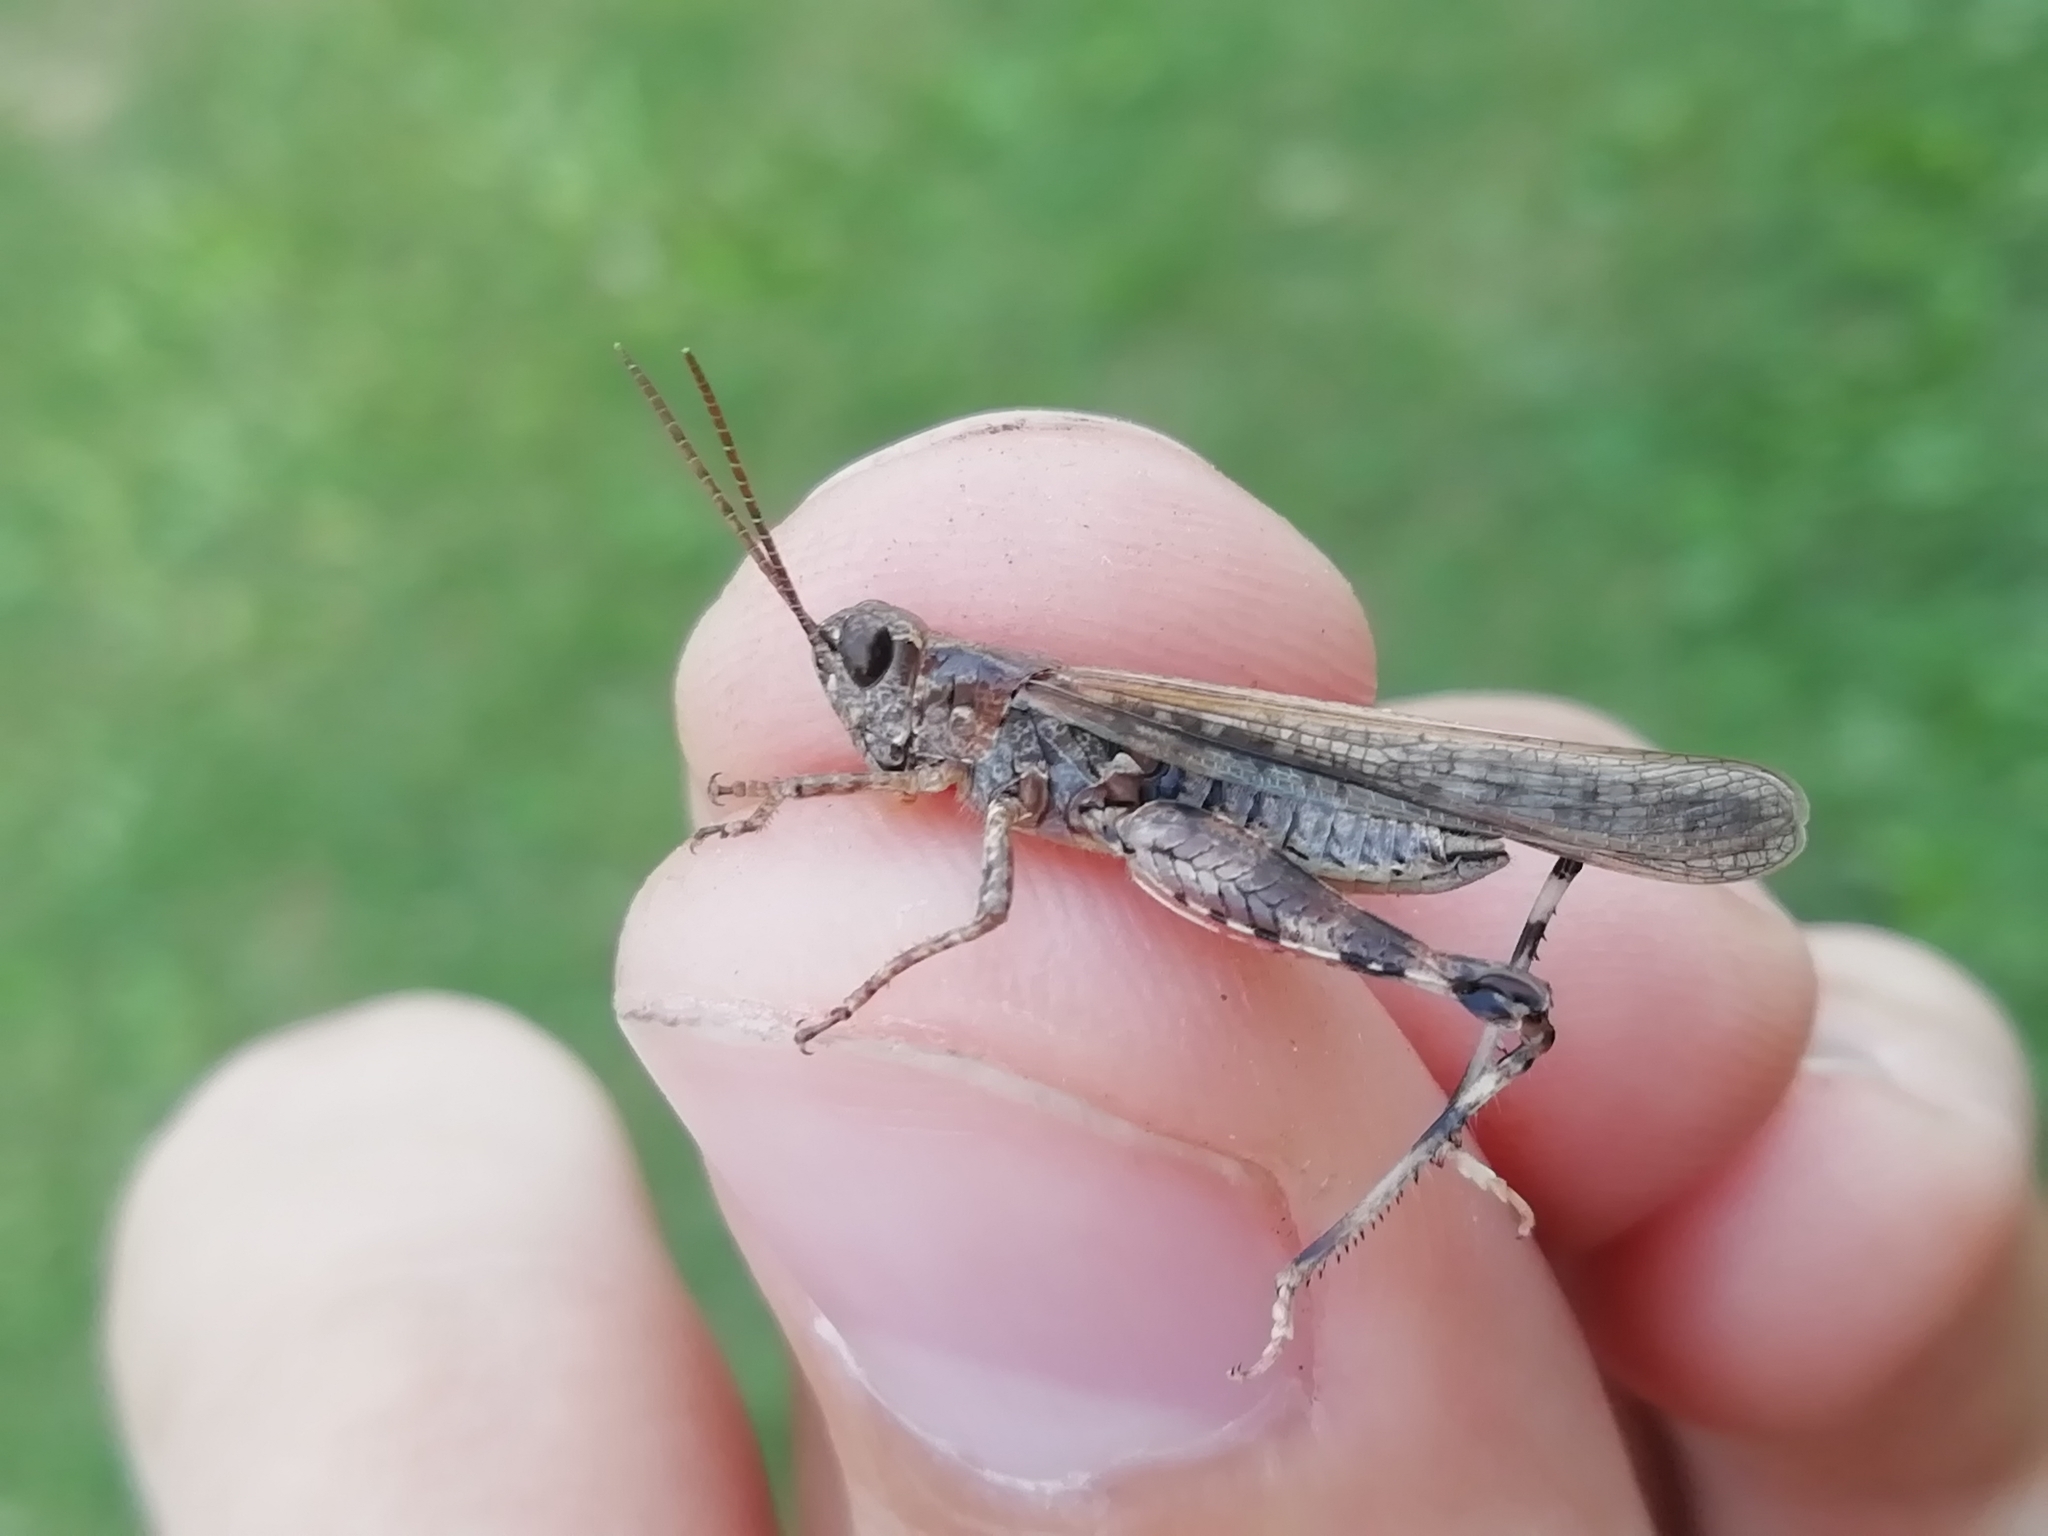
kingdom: Animalia
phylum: Arthropoda
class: Insecta
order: Orthoptera
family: Acrididae
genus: Epacromius
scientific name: Epacromius pulverulentus
